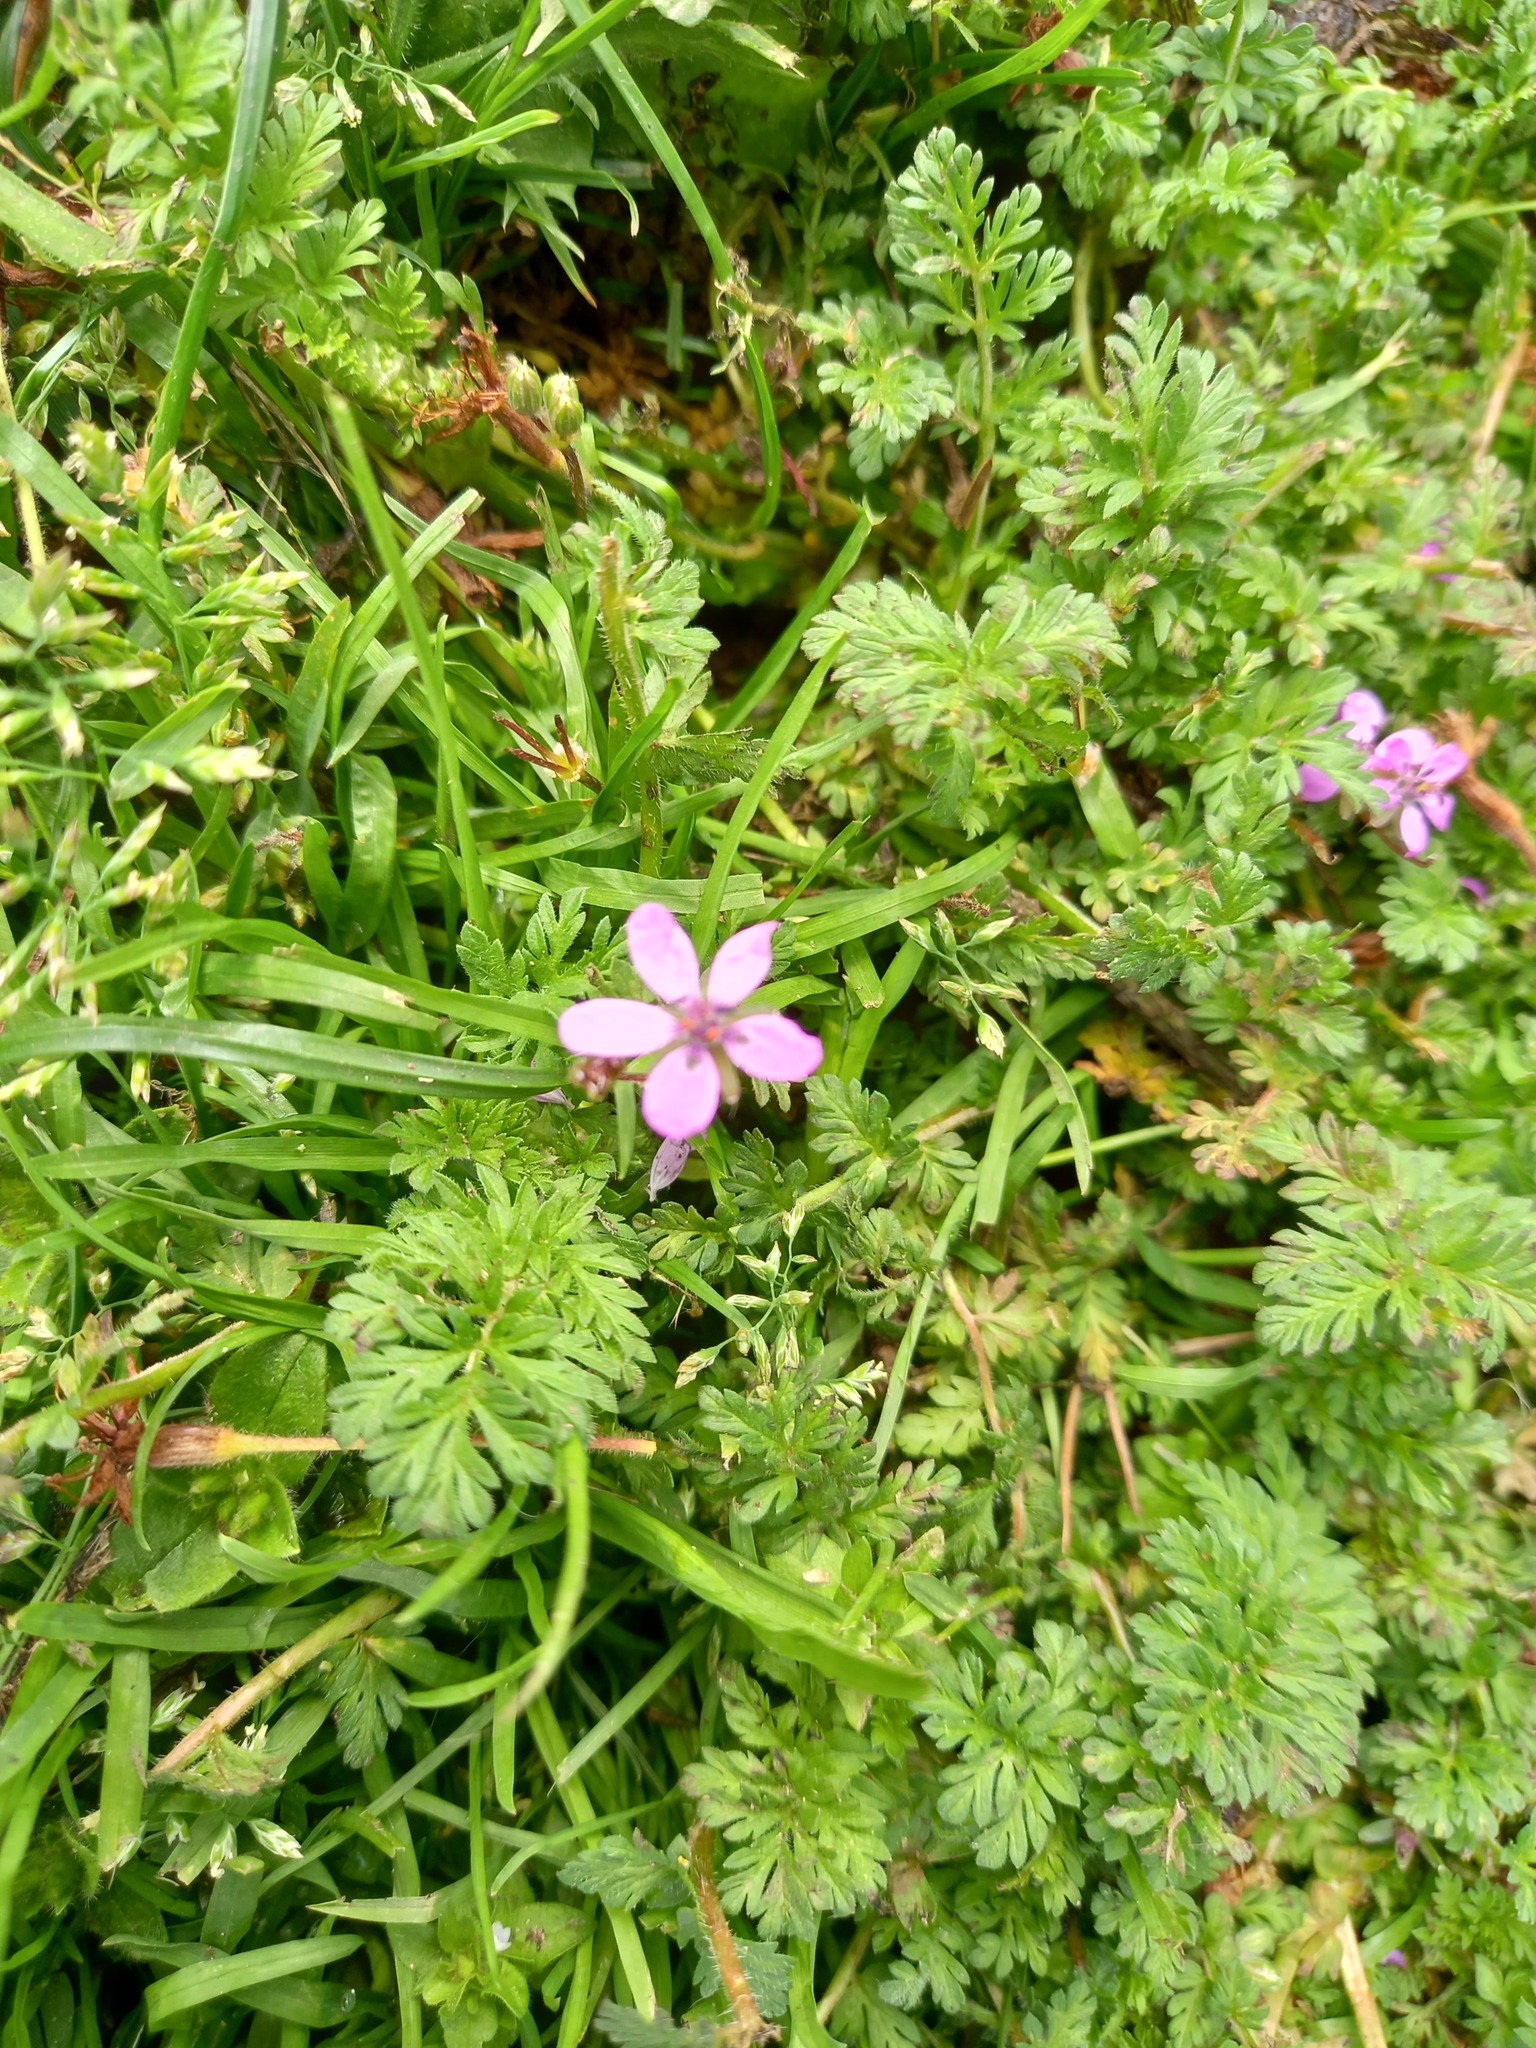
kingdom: Plantae
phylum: Tracheophyta
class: Magnoliopsida
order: Geraniales
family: Geraniaceae
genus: Erodium
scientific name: Erodium cicutarium
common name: Common stork's-bill
